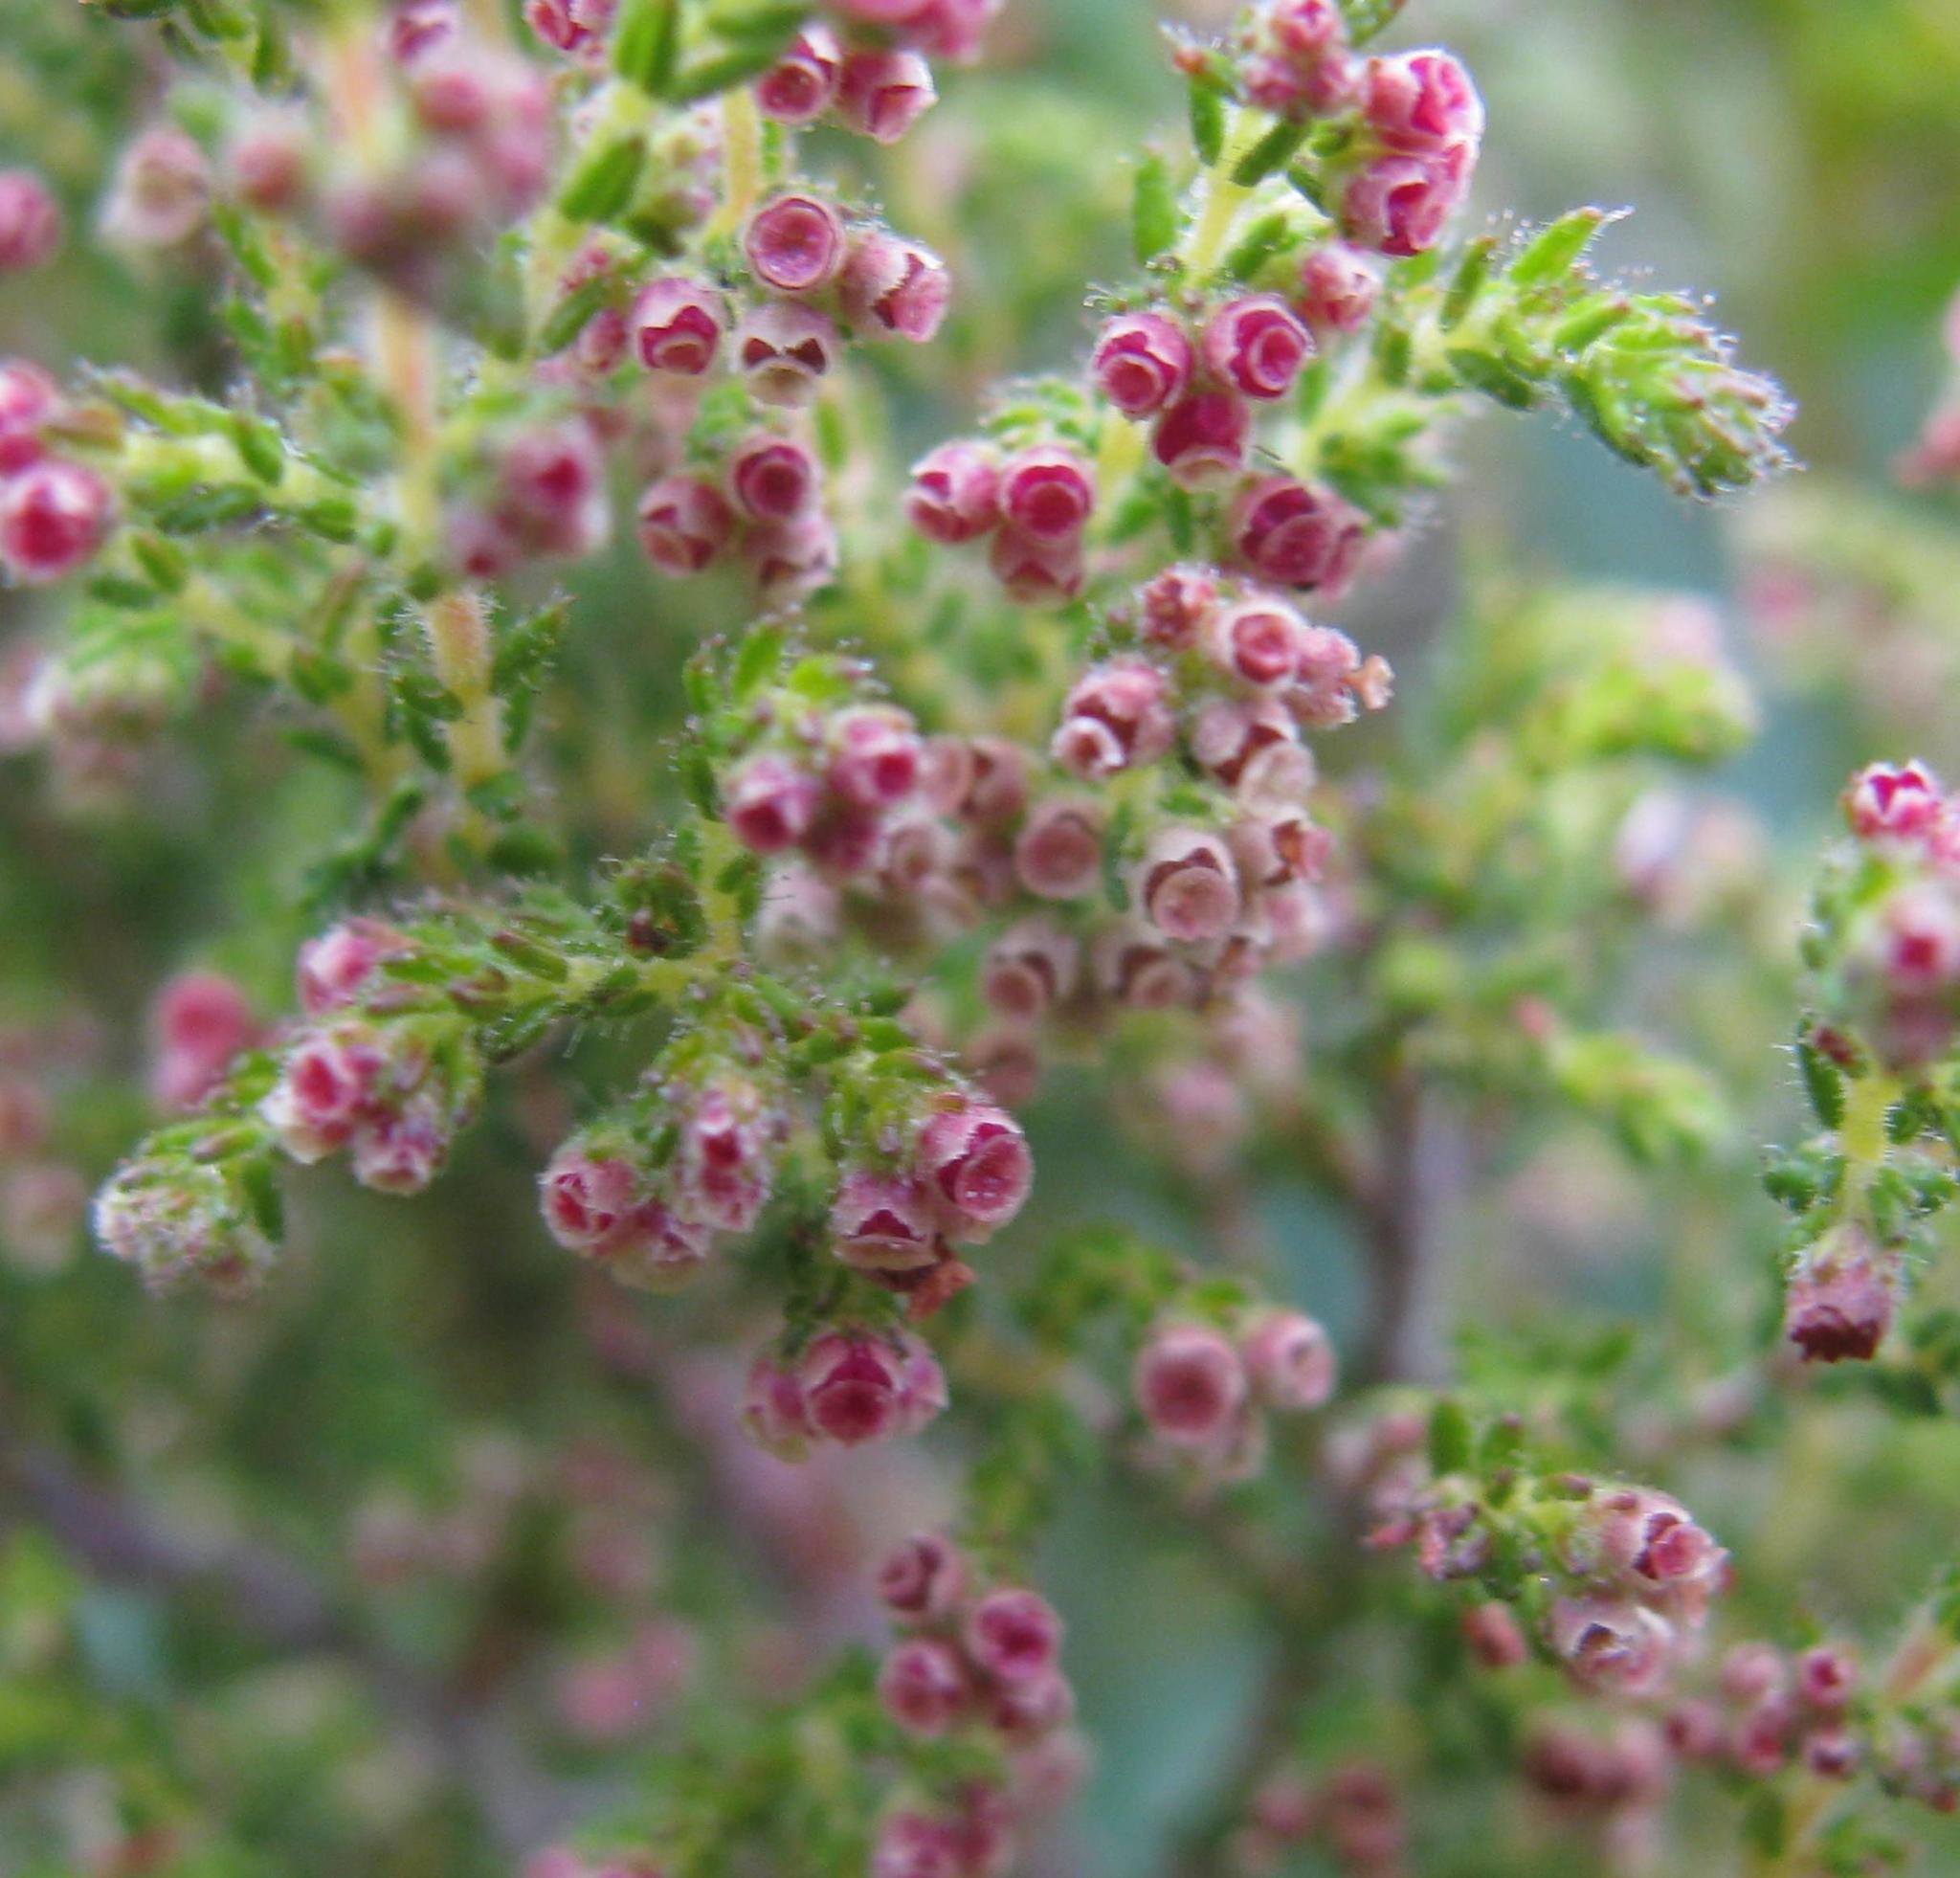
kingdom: Plantae
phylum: Tracheophyta
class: Magnoliopsida
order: Ericales
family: Ericaceae
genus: Erica
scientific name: Erica muscosa
